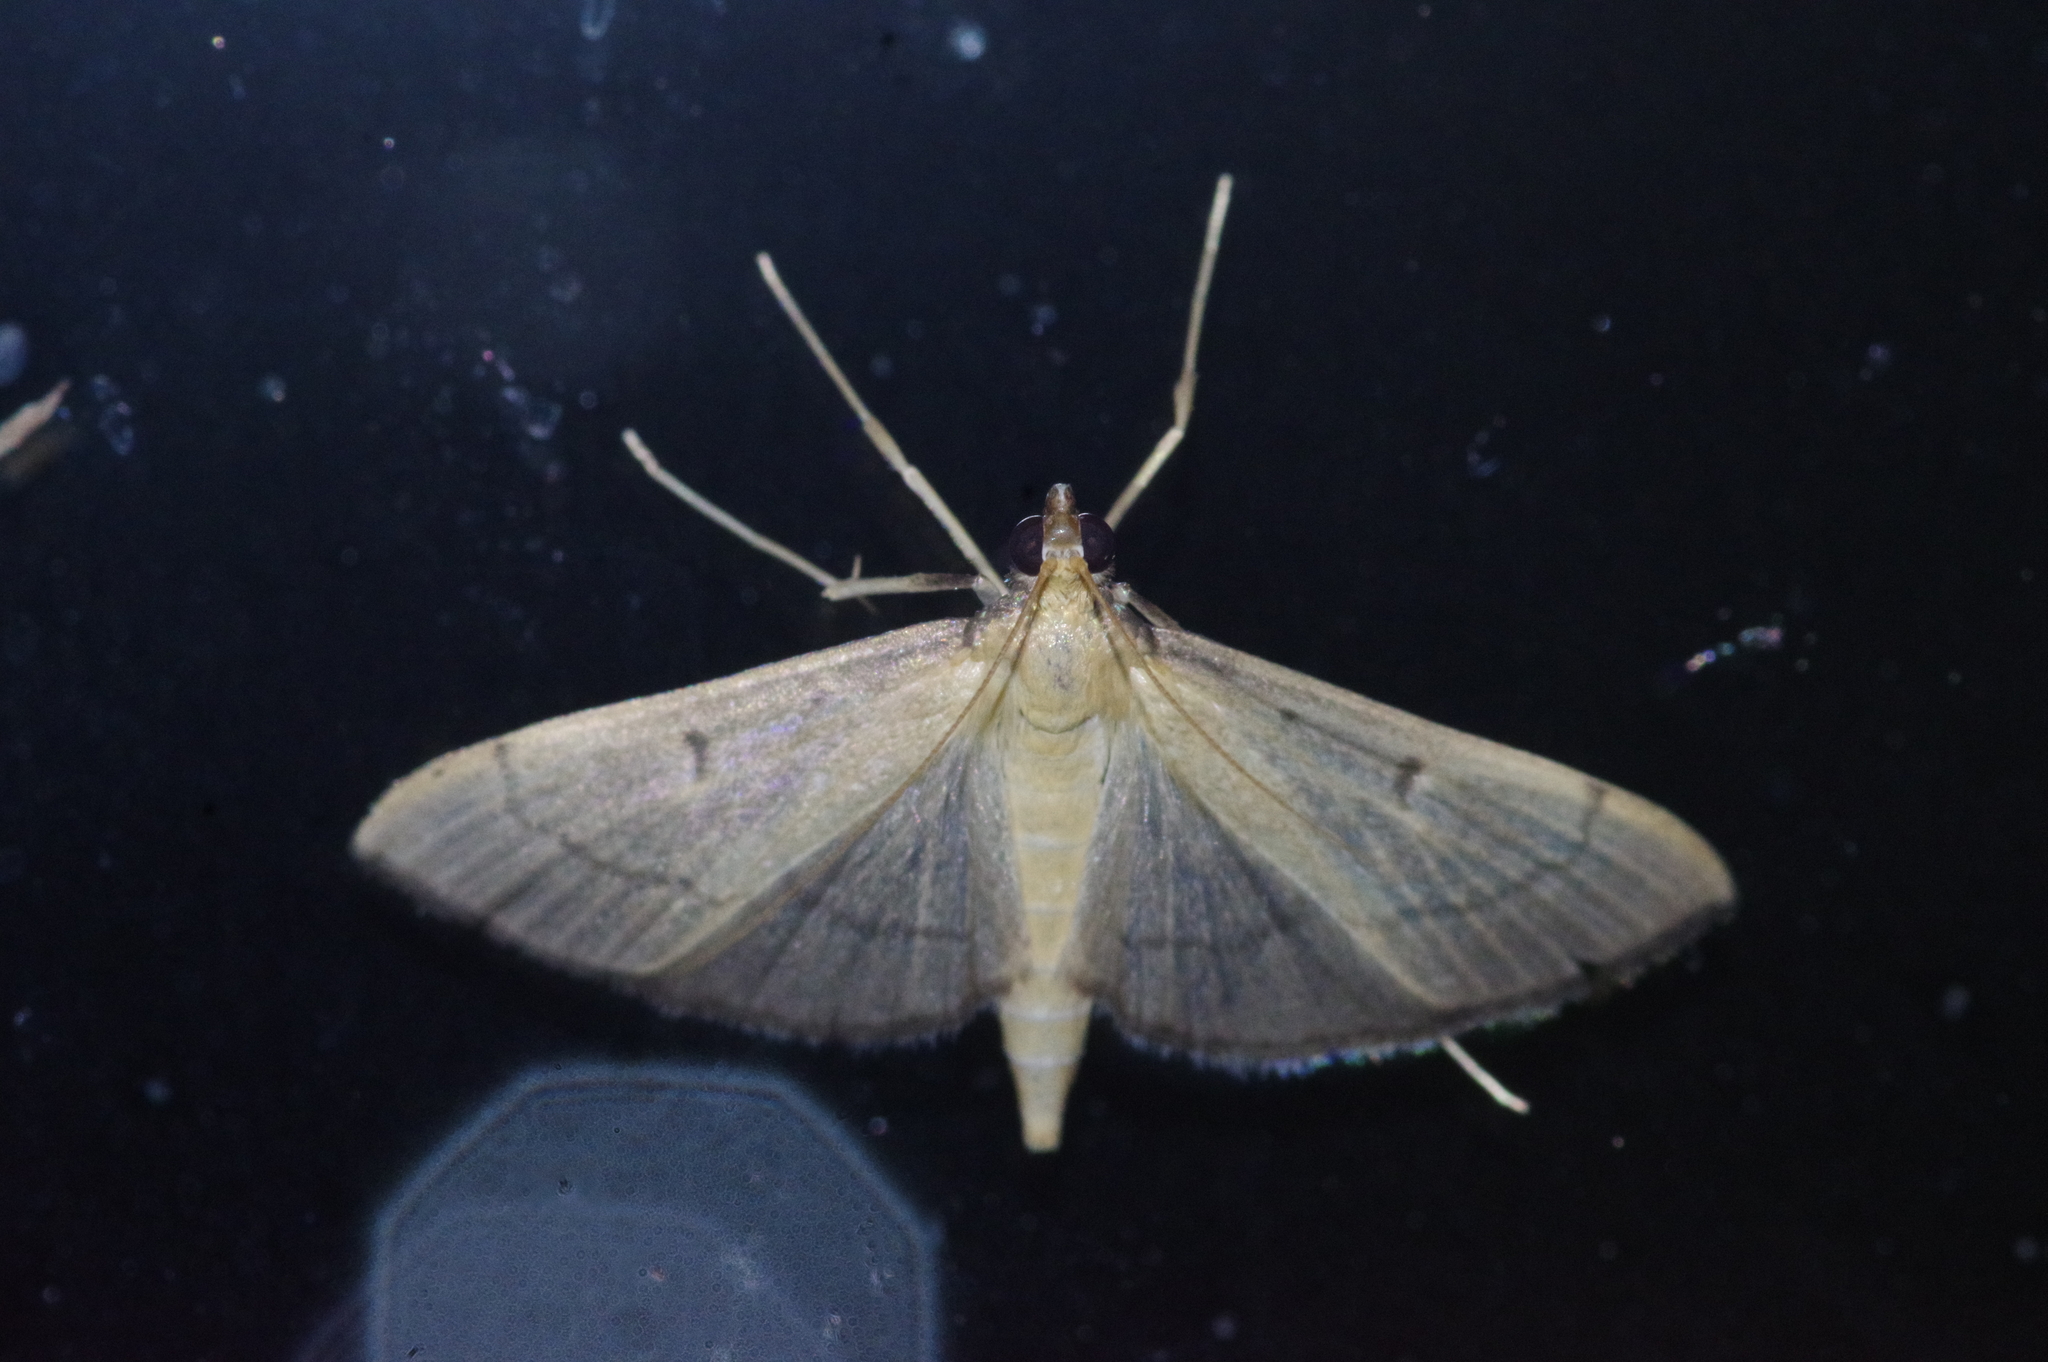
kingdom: Animalia
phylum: Arthropoda
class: Insecta
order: Lepidoptera
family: Crambidae
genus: Bradina
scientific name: Bradina geminalis
